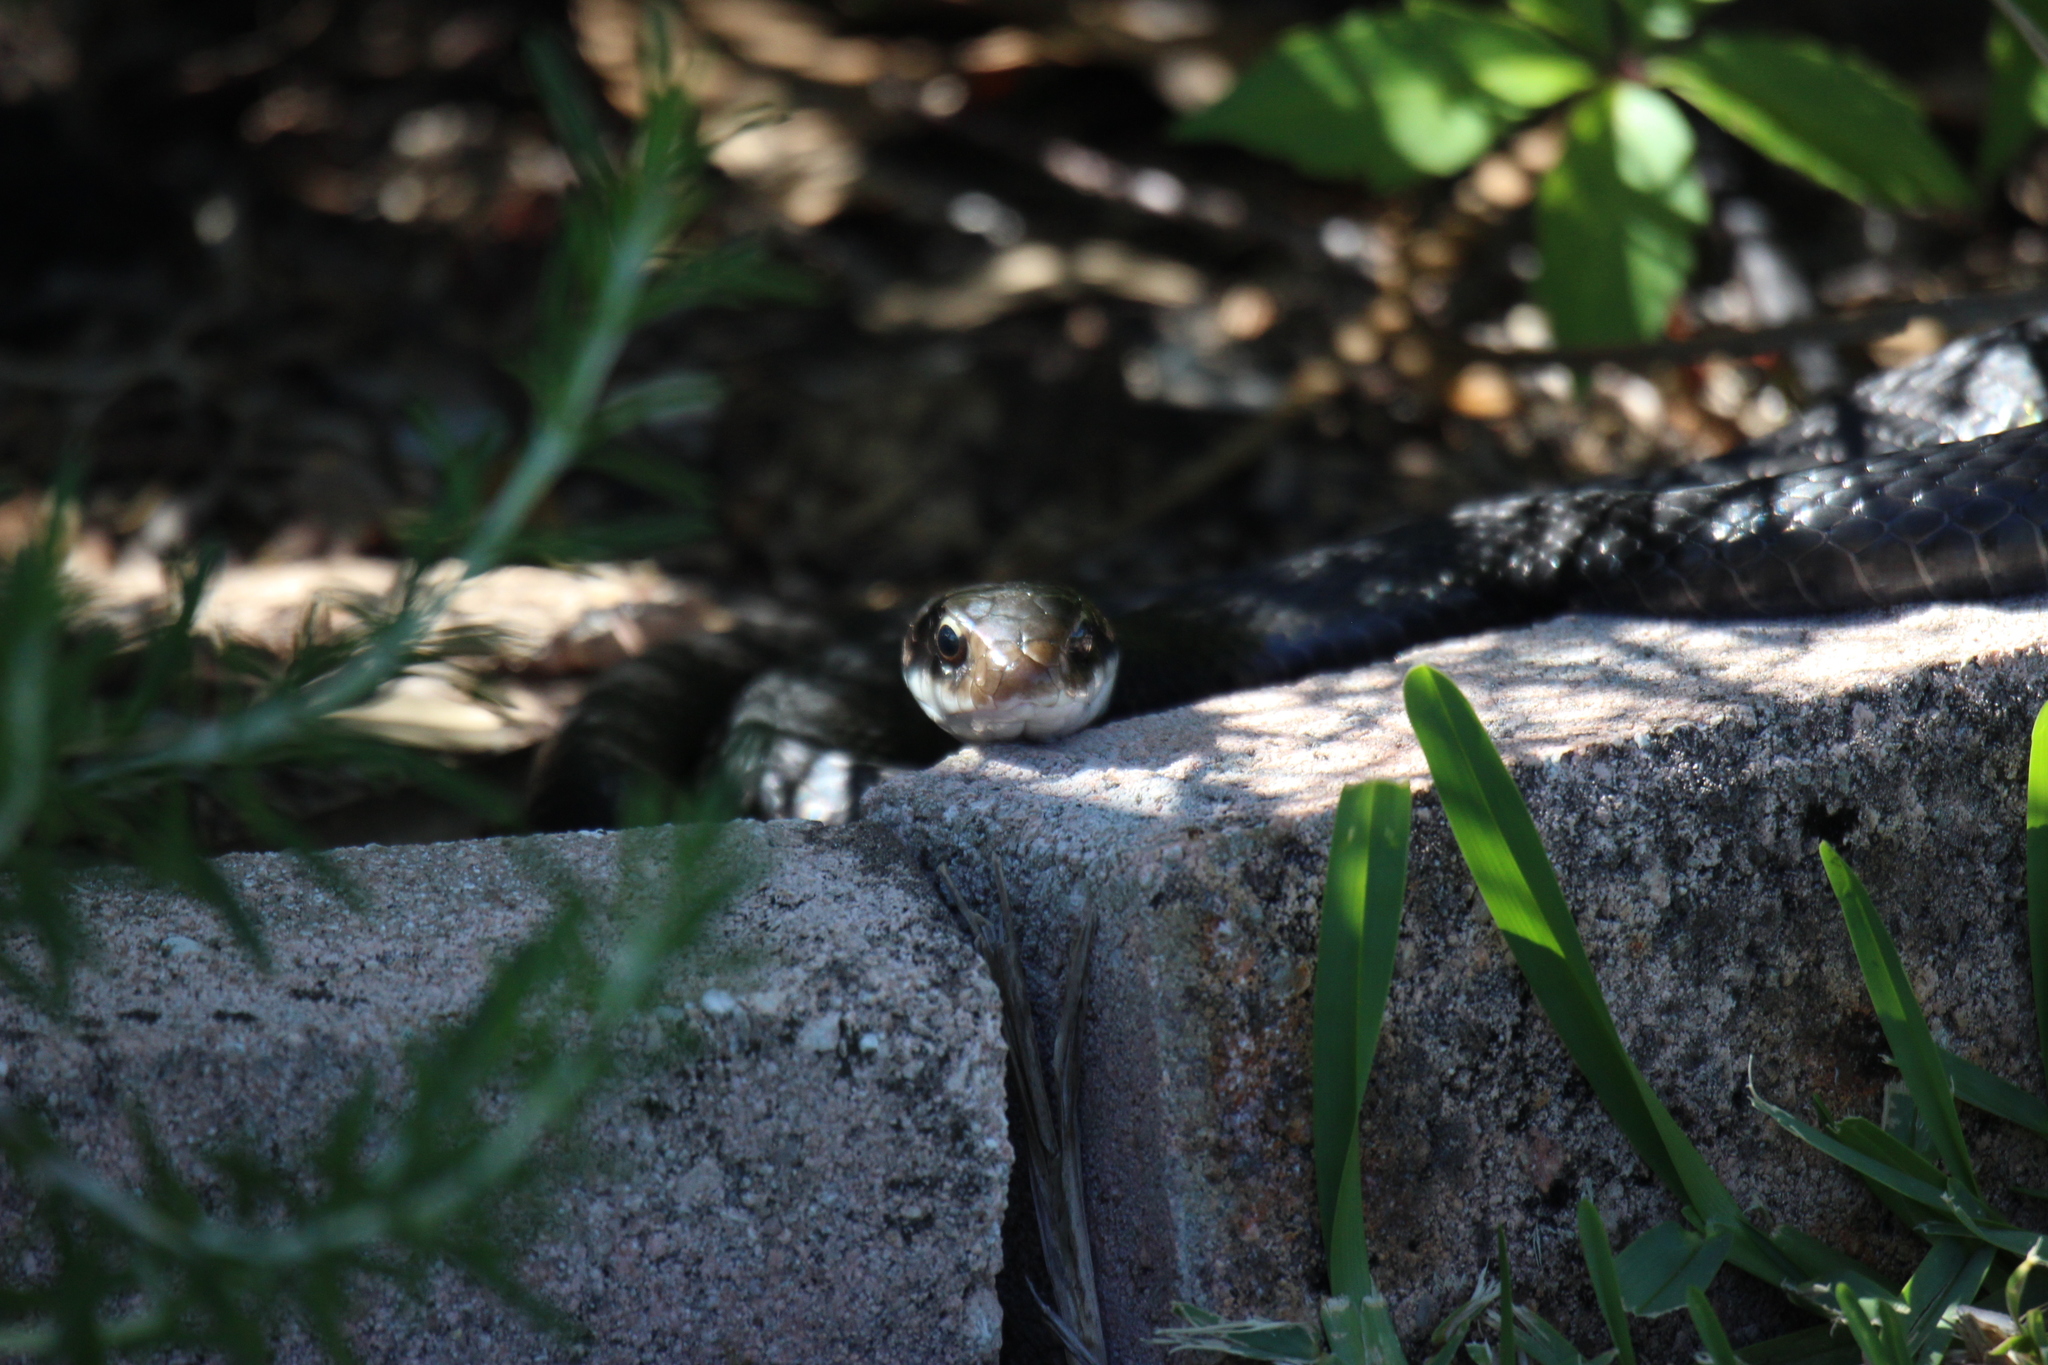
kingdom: Animalia
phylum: Chordata
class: Squamata
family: Colubridae
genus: Coluber
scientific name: Coluber constrictor
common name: Eastern racer
